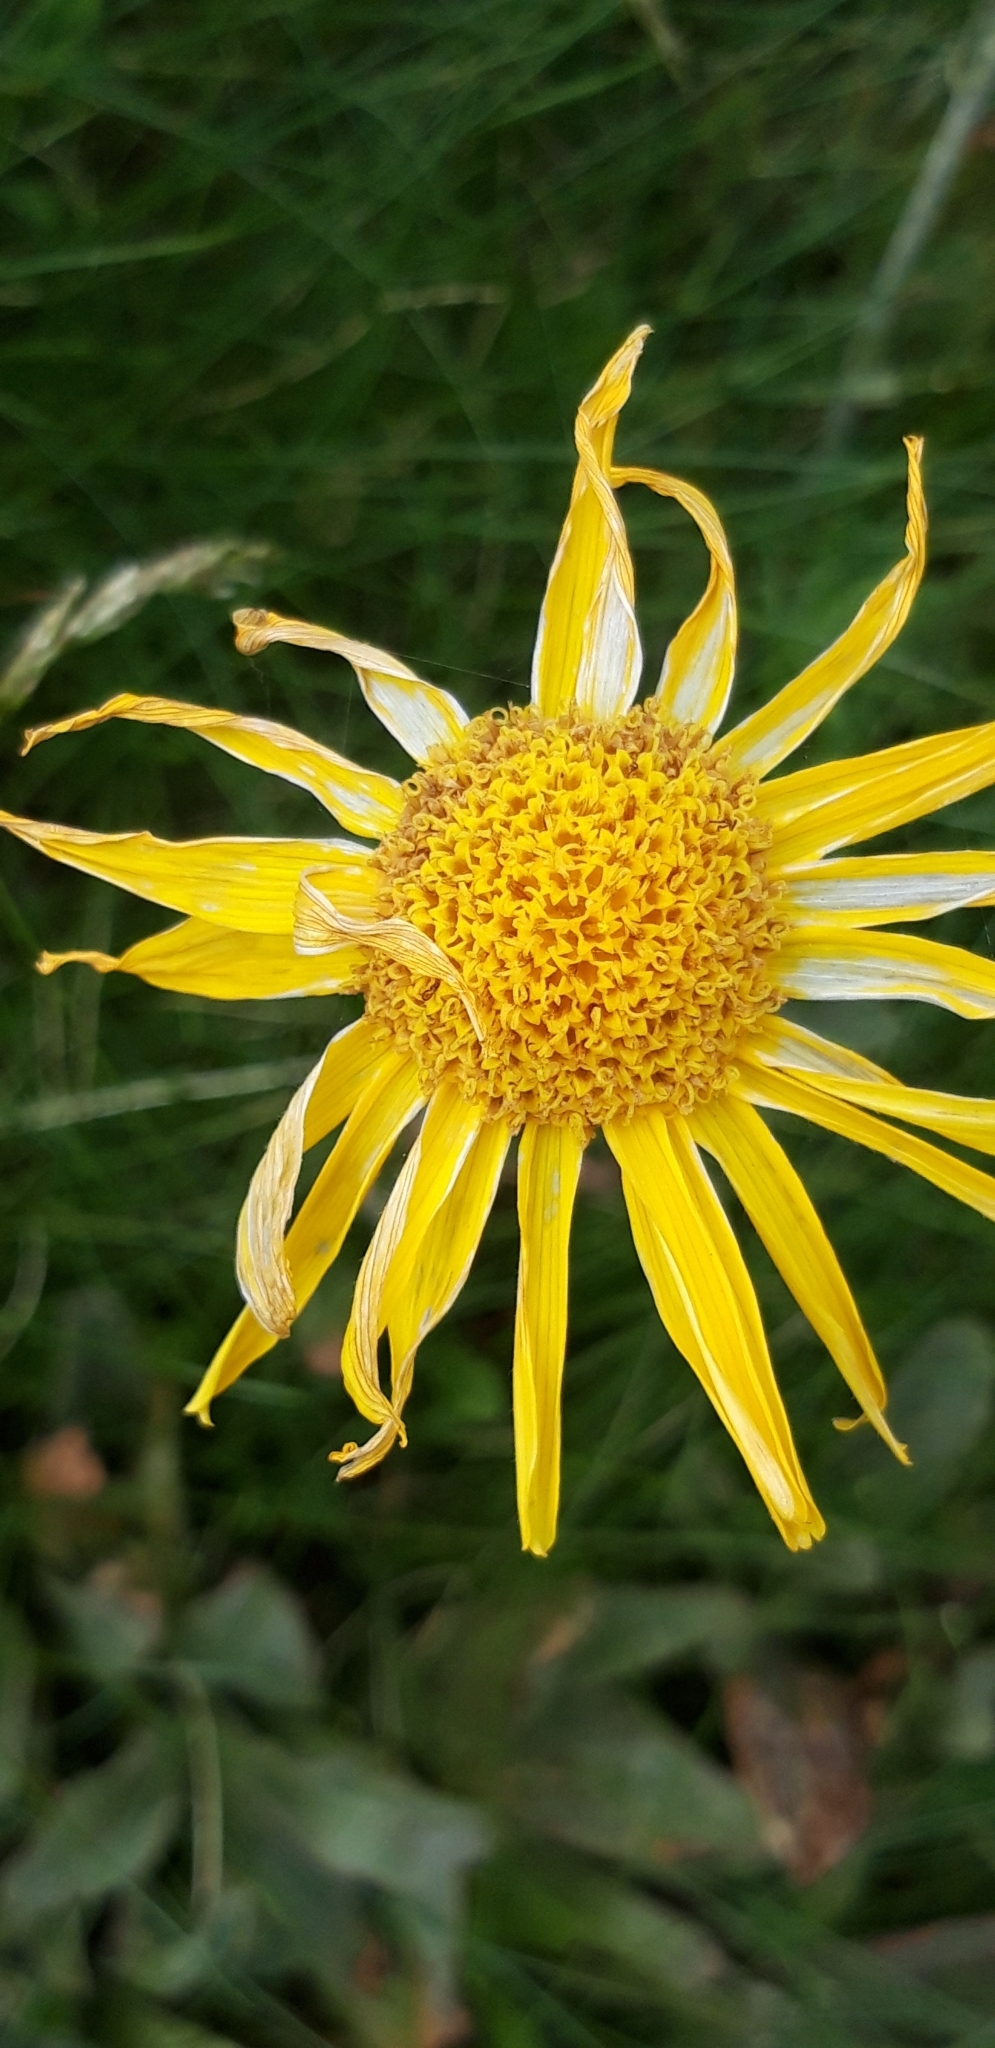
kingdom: Plantae
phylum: Tracheophyta
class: Magnoliopsida
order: Asterales
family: Asteraceae
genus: Arnica
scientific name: Arnica montana
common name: Leopard's bane
